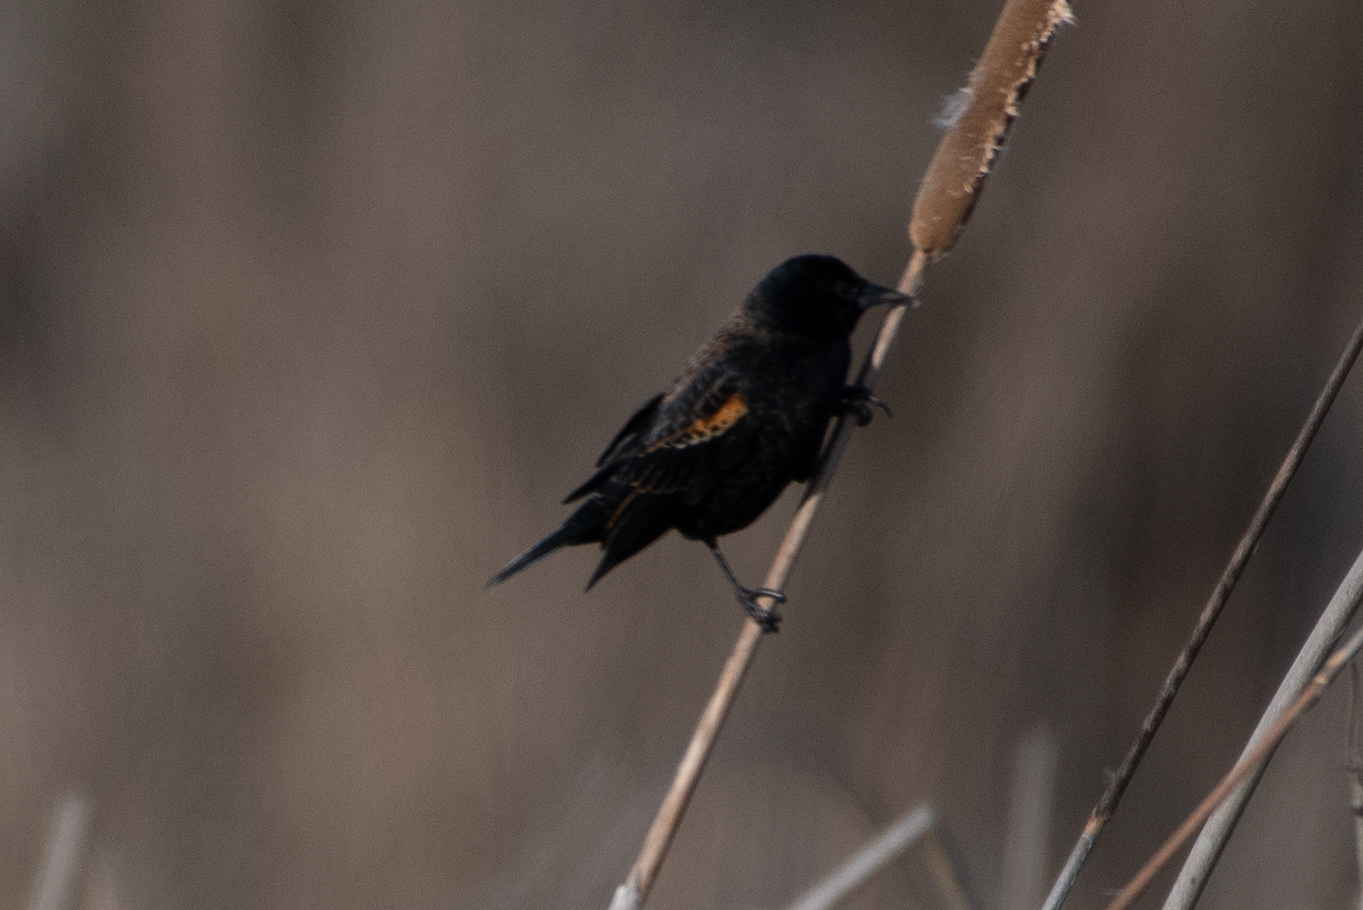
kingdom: Animalia
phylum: Chordata
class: Aves
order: Passeriformes
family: Icteridae
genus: Agelaius
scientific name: Agelaius phoeniceus
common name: Red-winged blackbird
